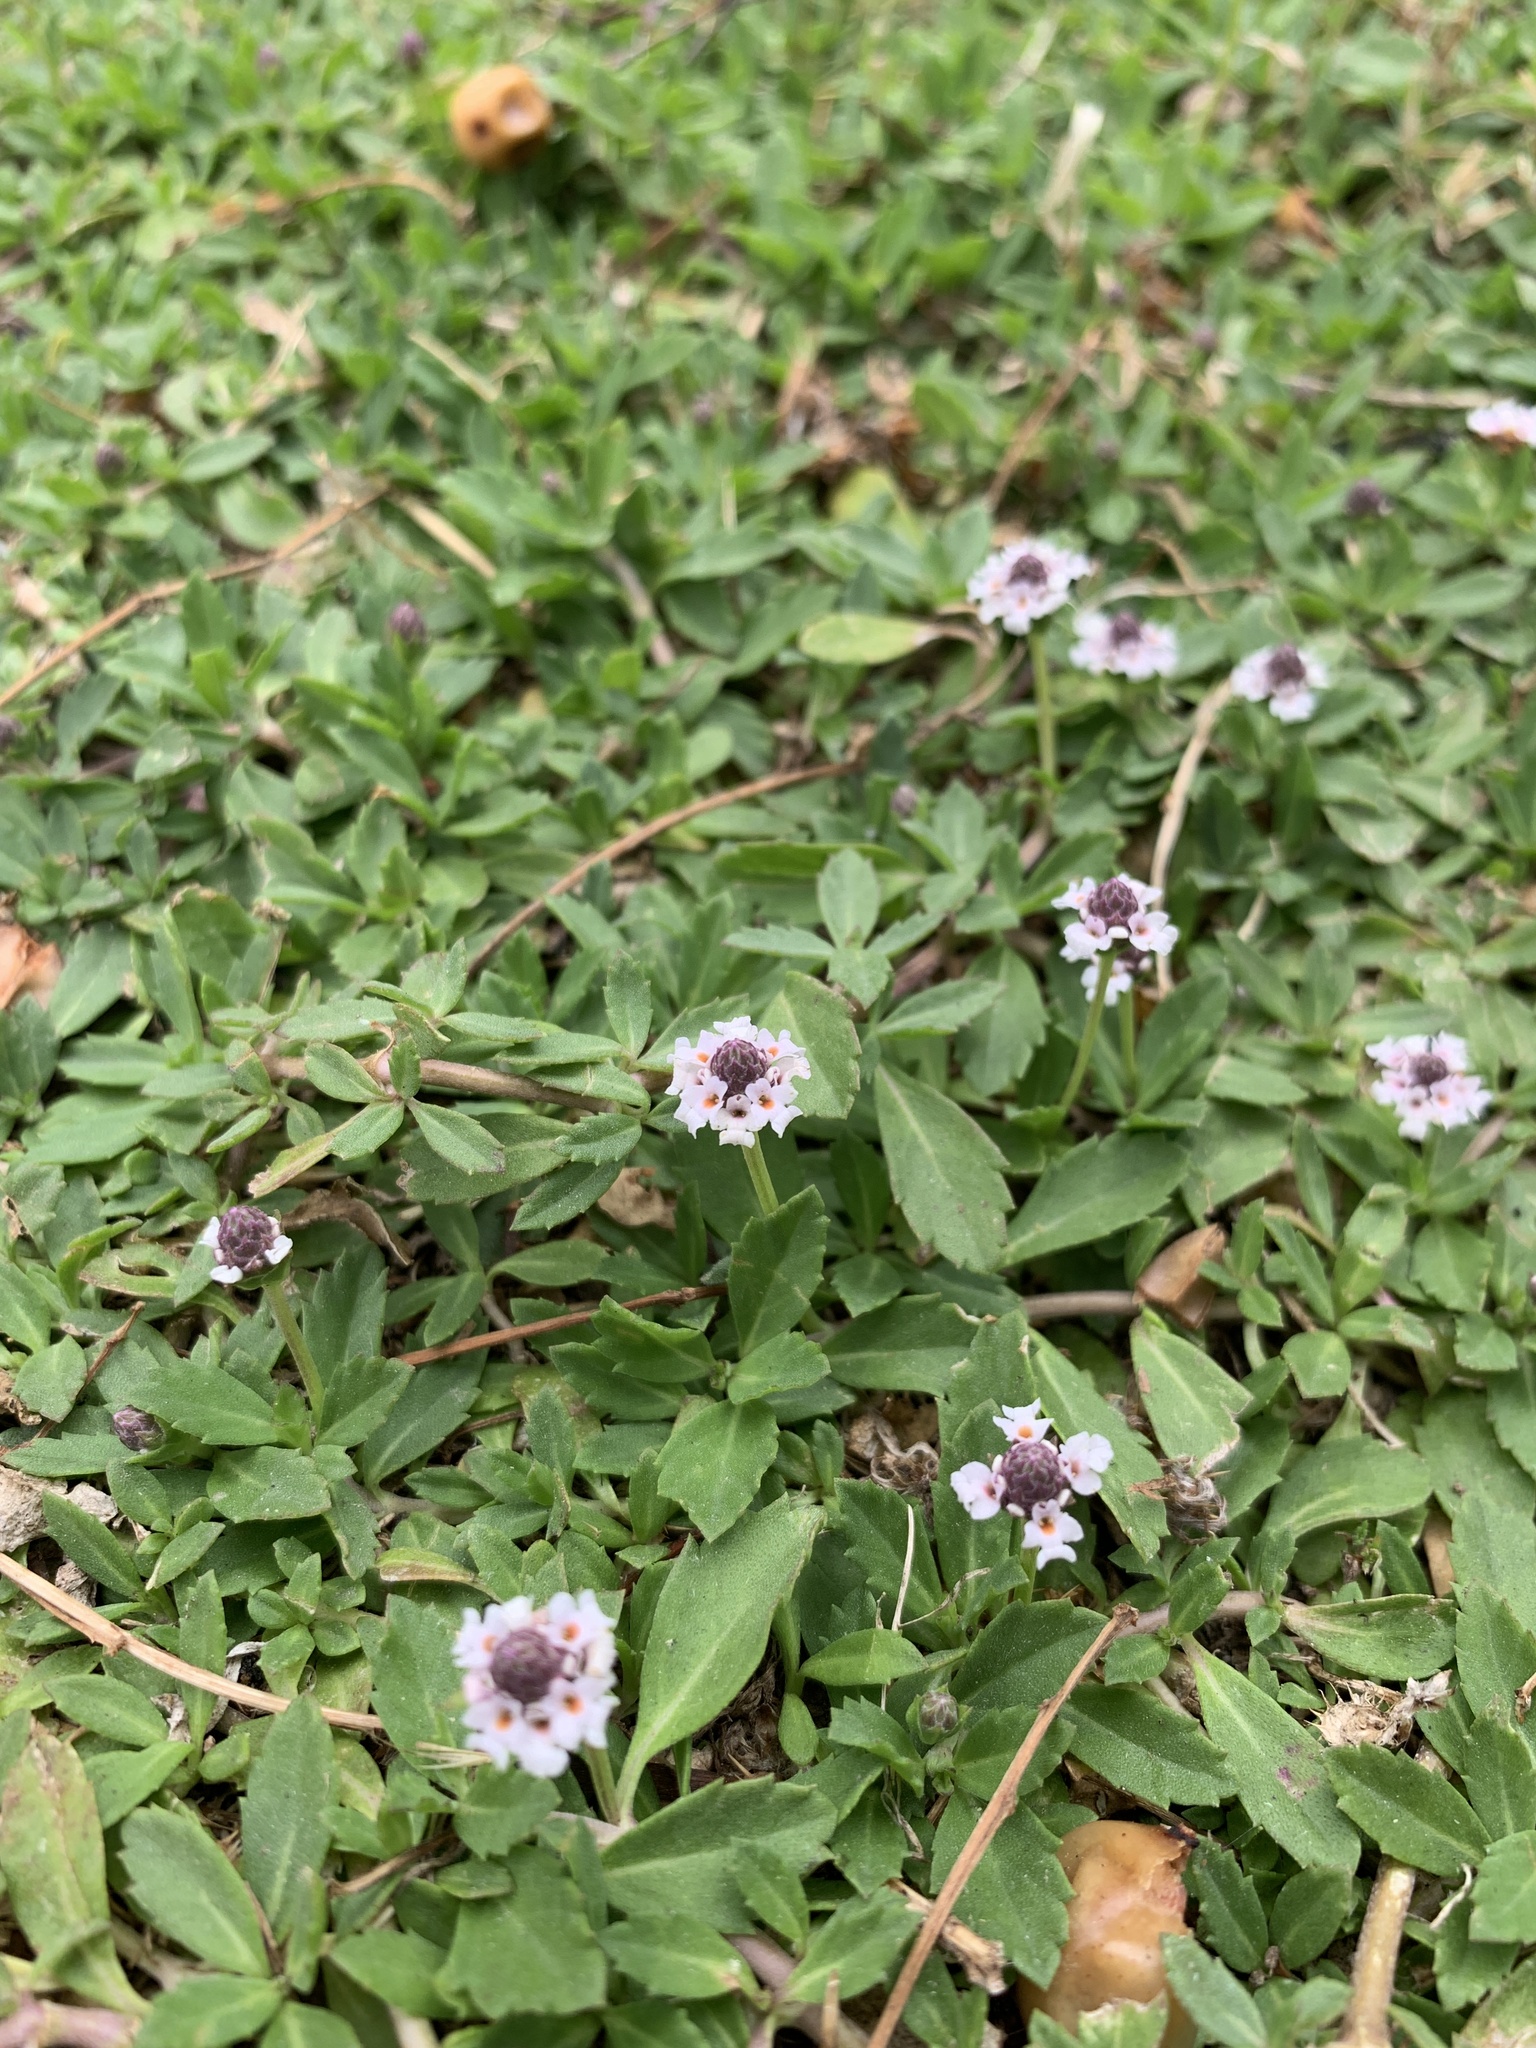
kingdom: Plantae
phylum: Tracheophyta
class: Magnoliopsida
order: Lamiales
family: Verbenaceae
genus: Phyla
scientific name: Phyla nodiflora
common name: Frogfruit
